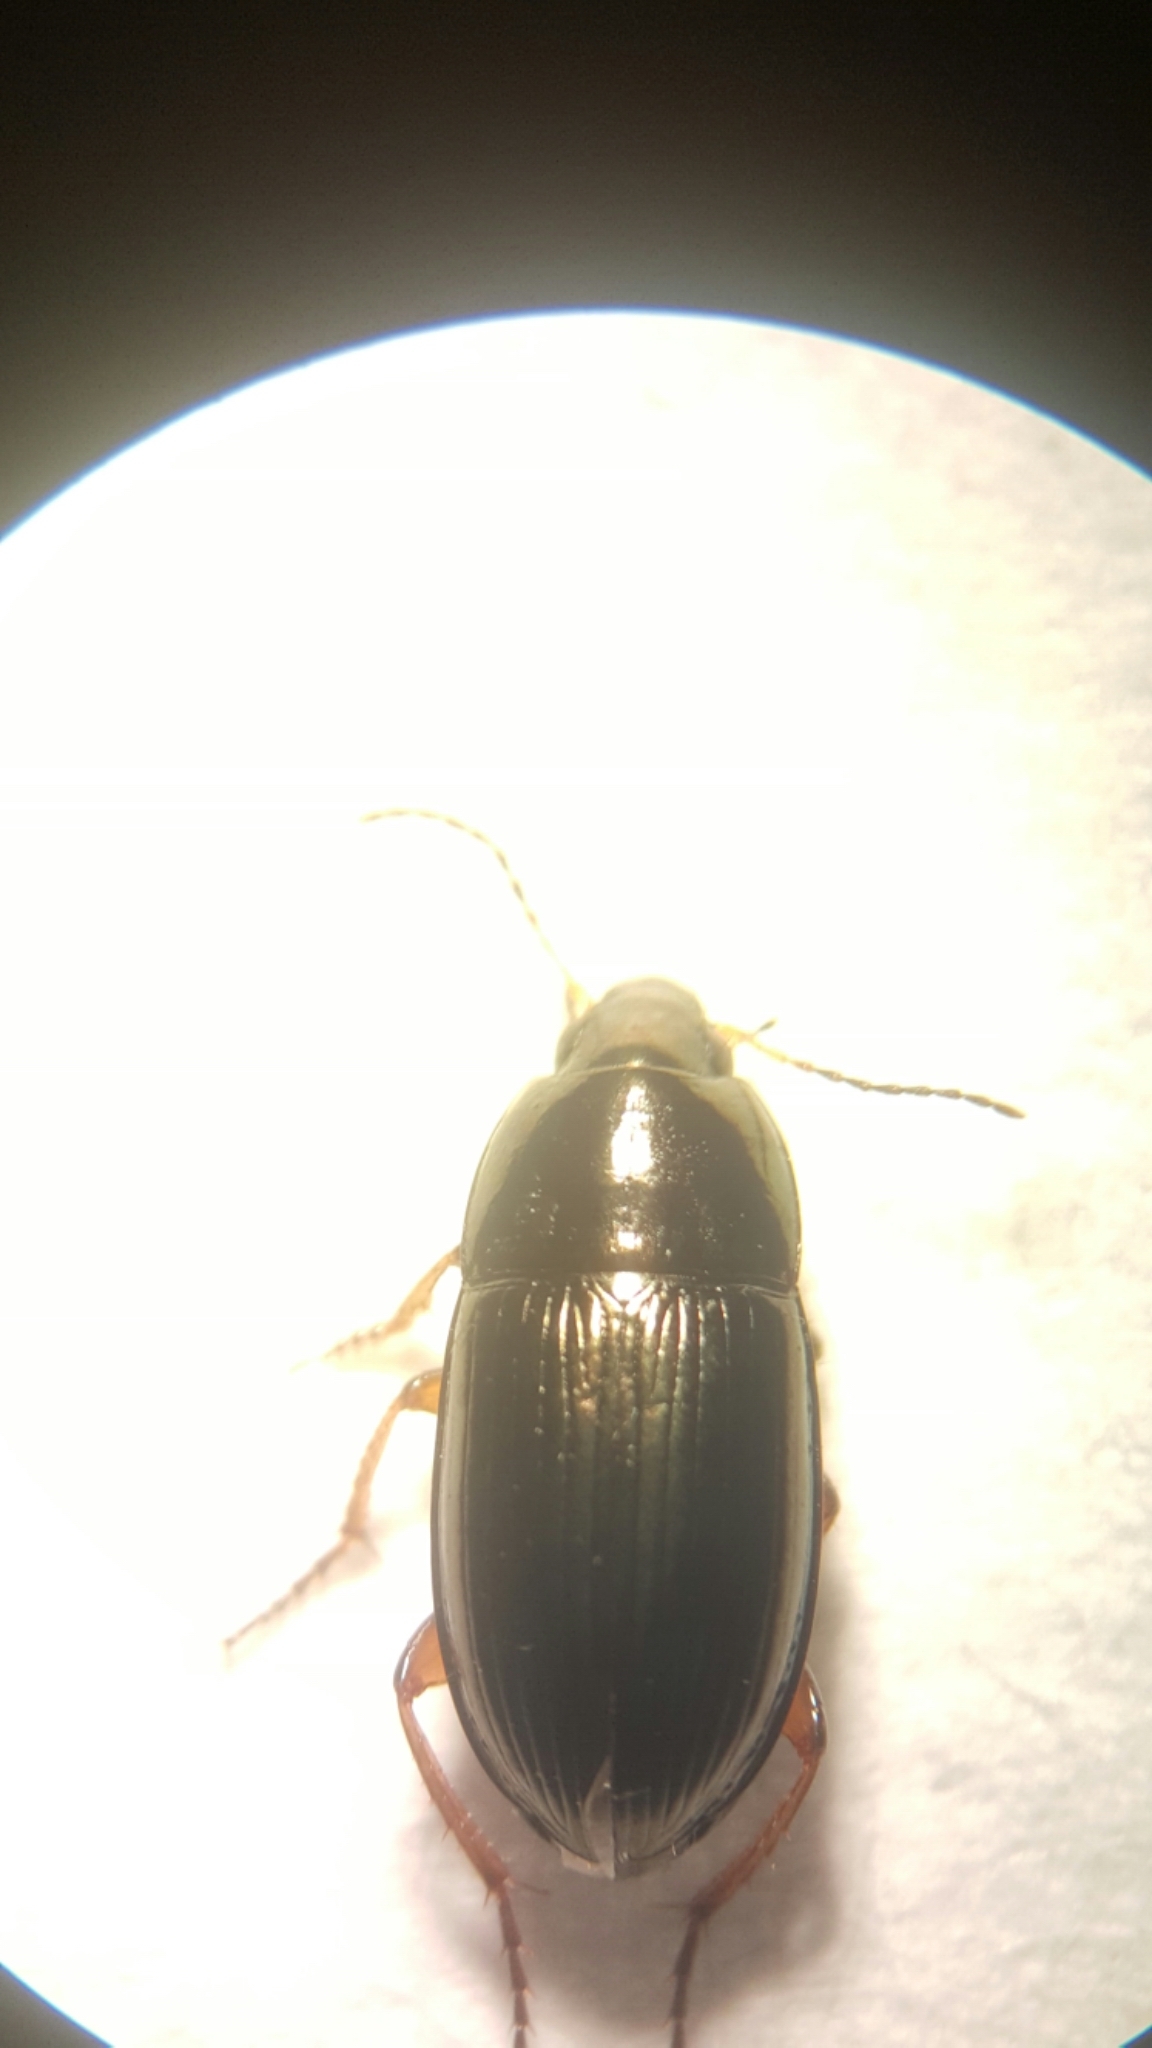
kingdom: Animalia
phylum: Arthropoda
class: Insecta
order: Coleoptera
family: Carabidae
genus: Amara
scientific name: Amara familiaris
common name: Familiar harp round beetle
